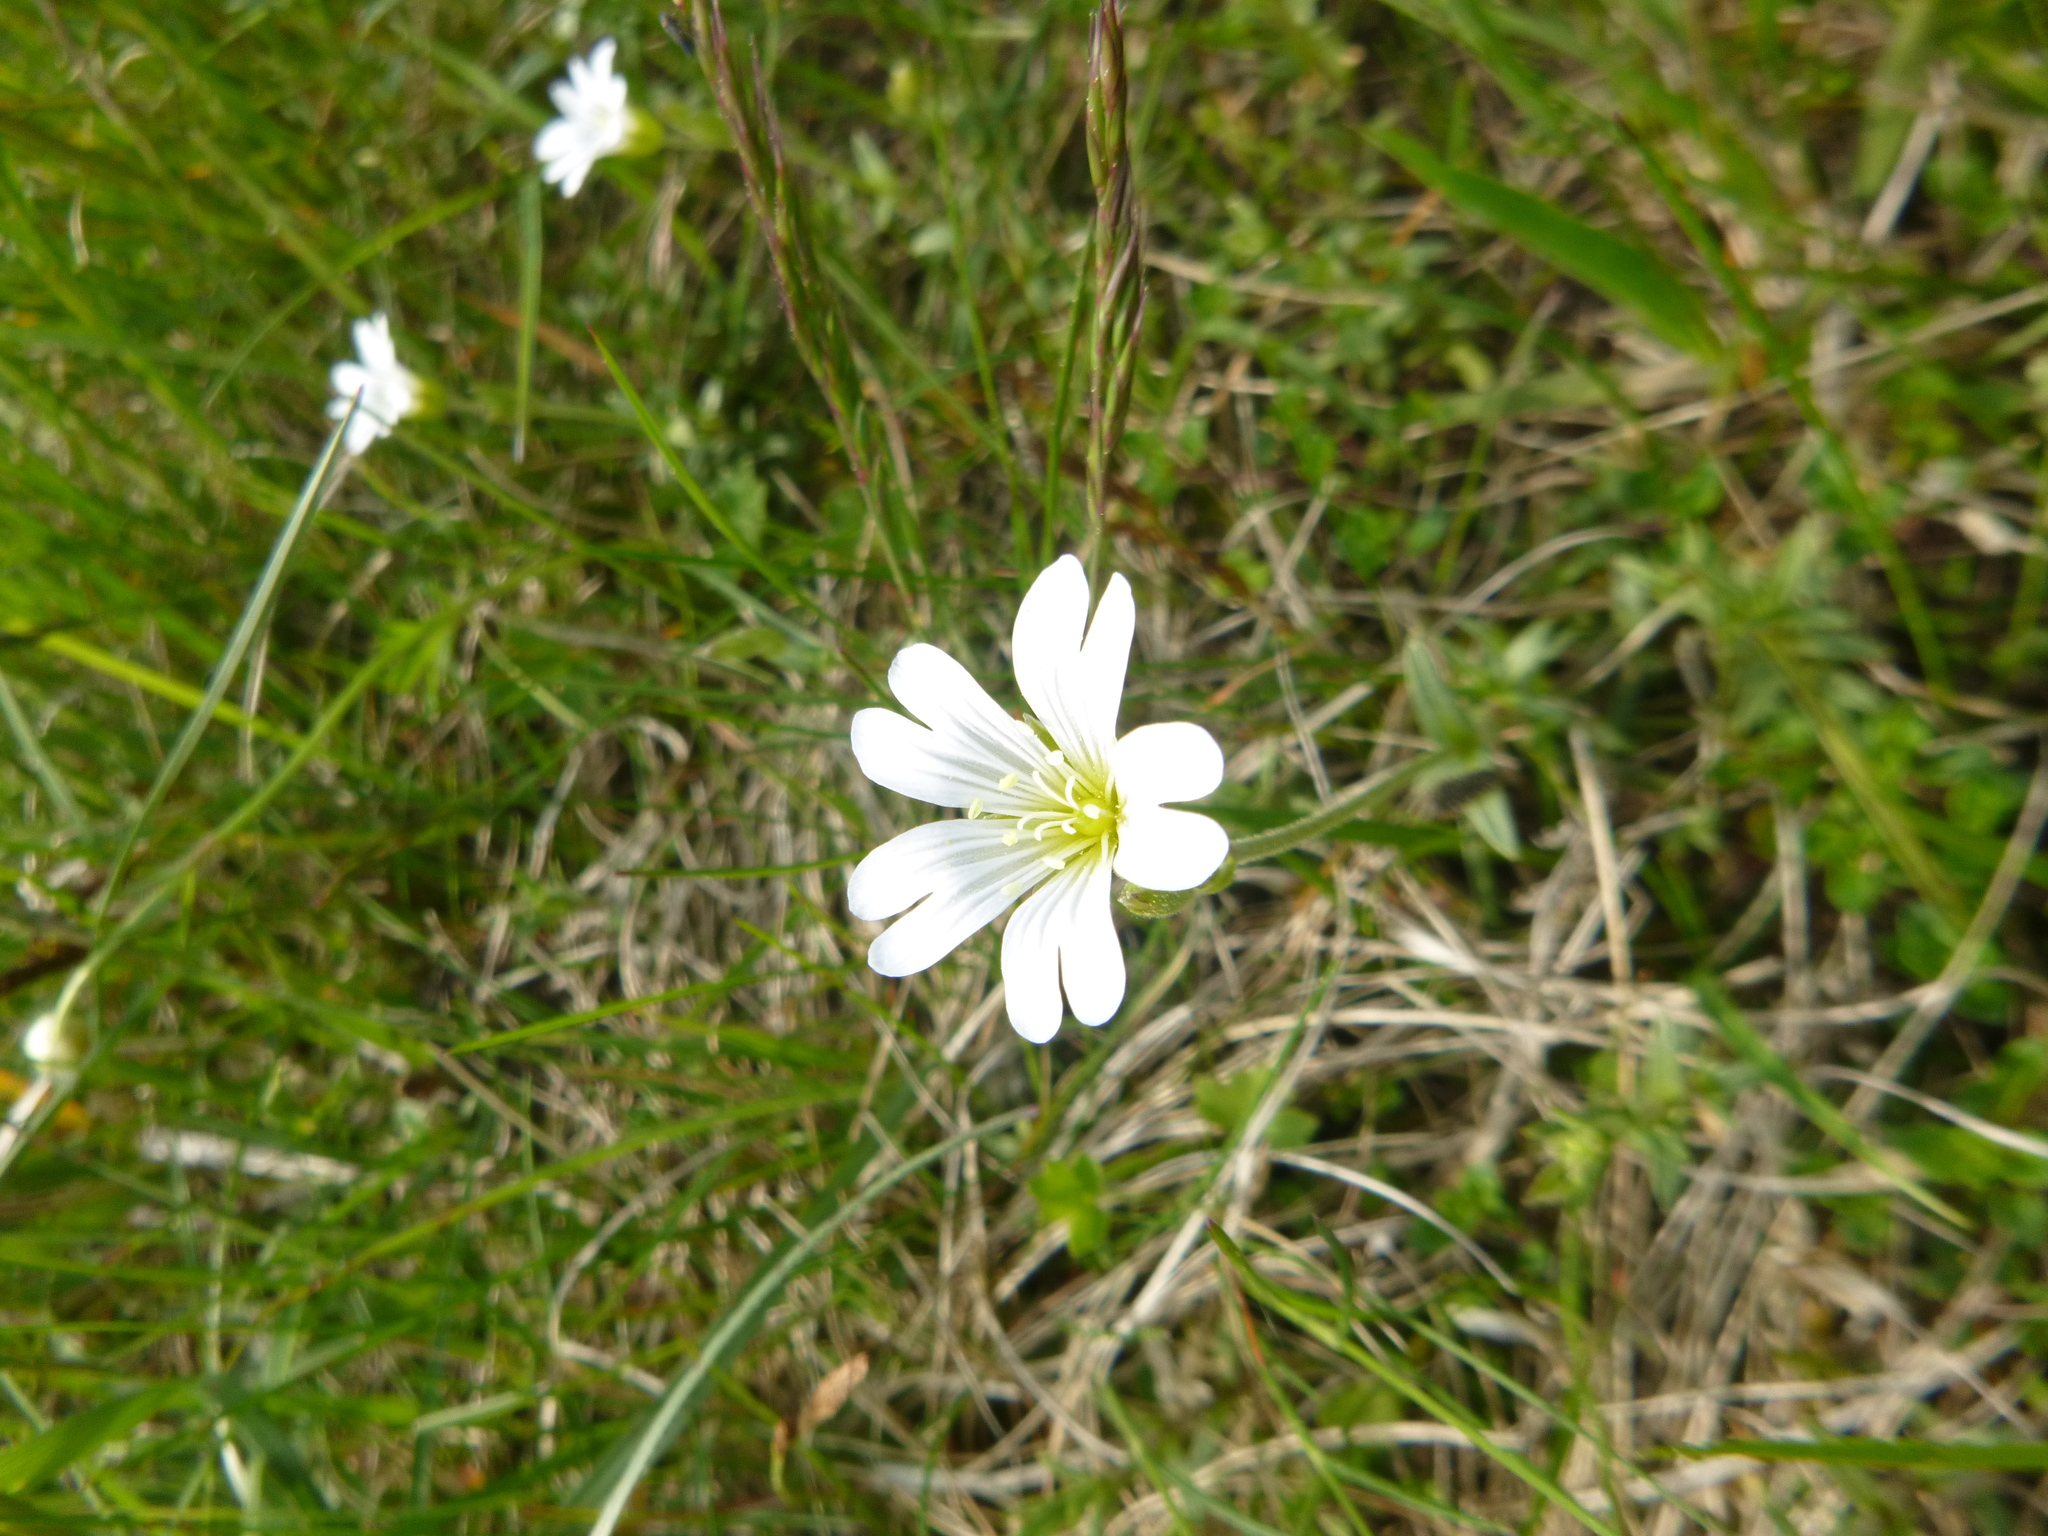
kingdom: Plantae
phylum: Tracheophyta
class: Magnoliopsida
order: Caryophyllales
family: Caryophyllaceae
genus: Cerastium
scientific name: Cerastium arvense
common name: Field mouse-ear
